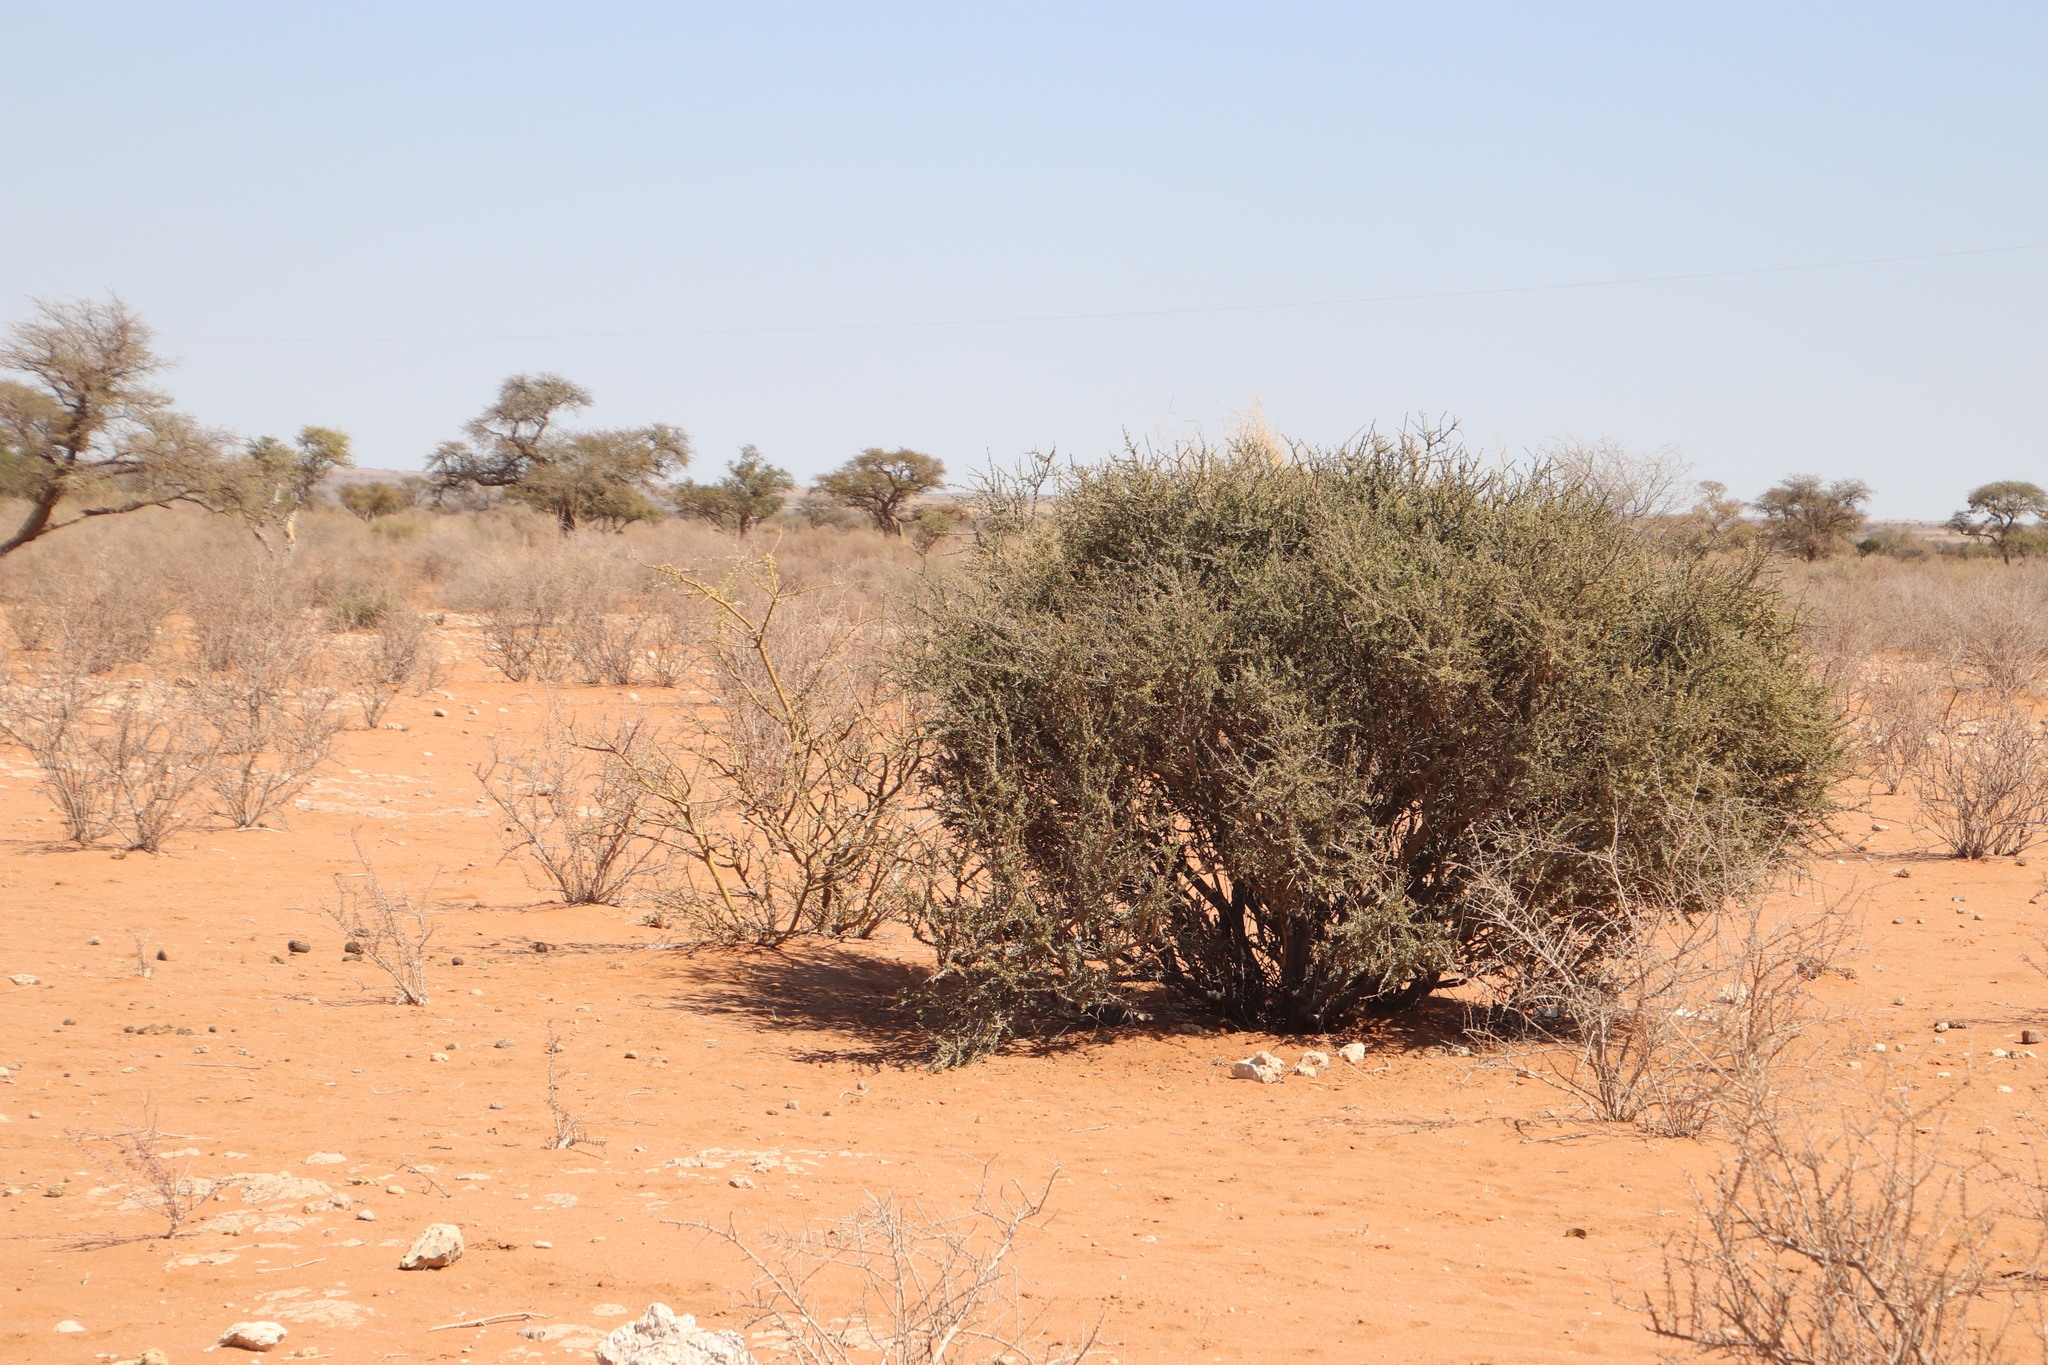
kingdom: Plantae
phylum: Tracheophyta
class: Magnoliopsida
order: Brassicales
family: Capparaceae
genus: Boscia
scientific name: Boscia foetida
